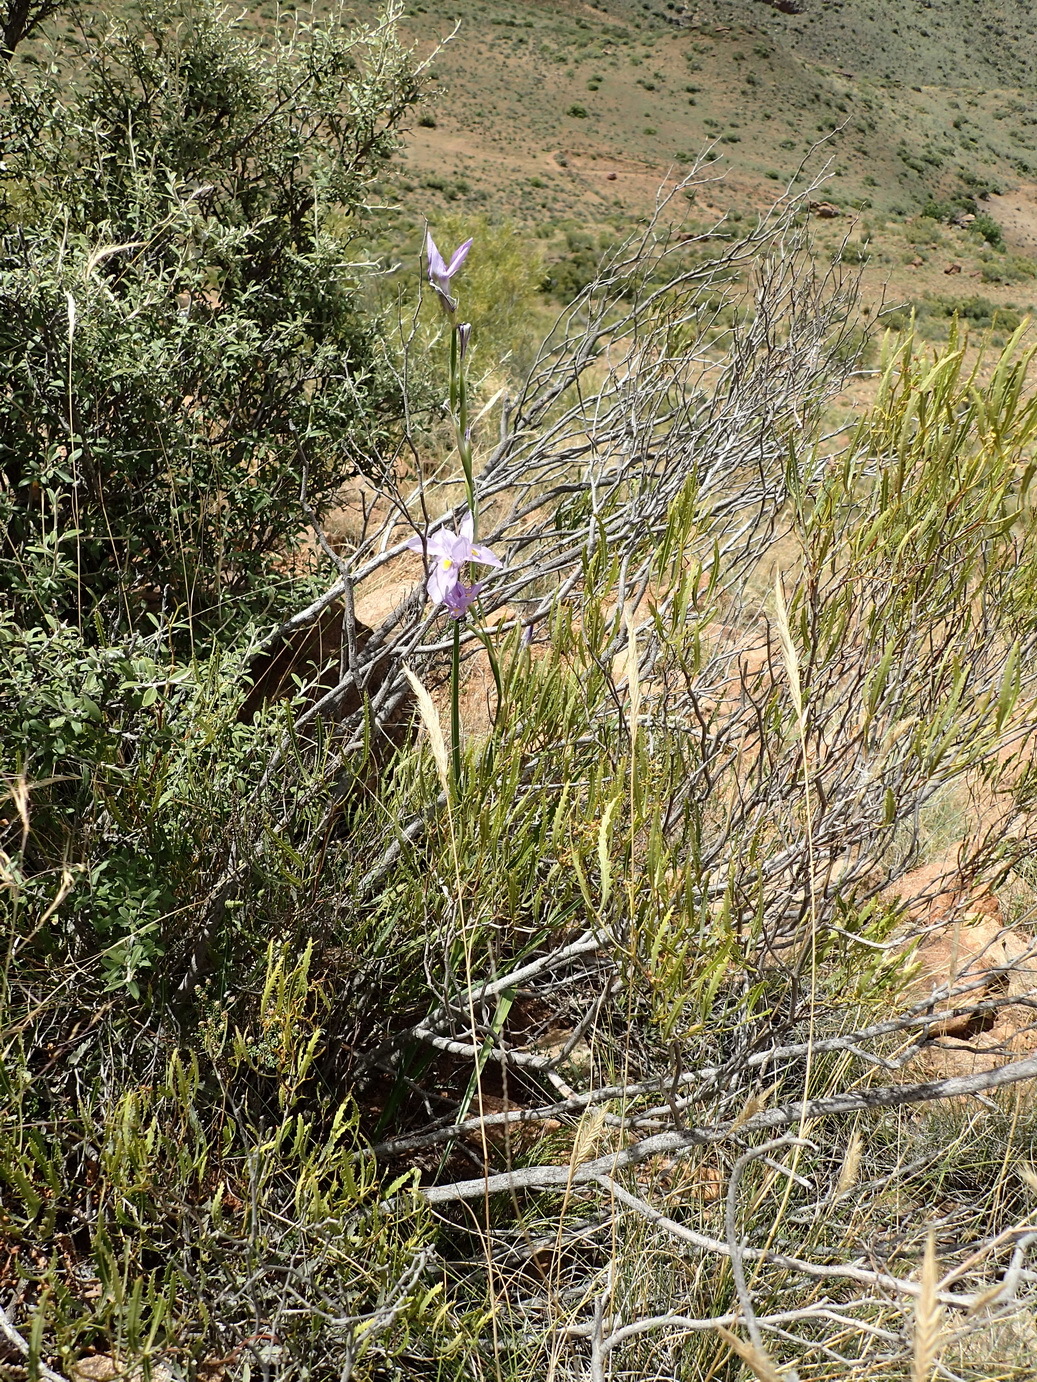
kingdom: Plantae
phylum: Tracheophyta
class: Liliopsida
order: Asparagales
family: Iridaceae
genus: Moraea
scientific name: Moraea polystachya
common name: Blue-tulip
